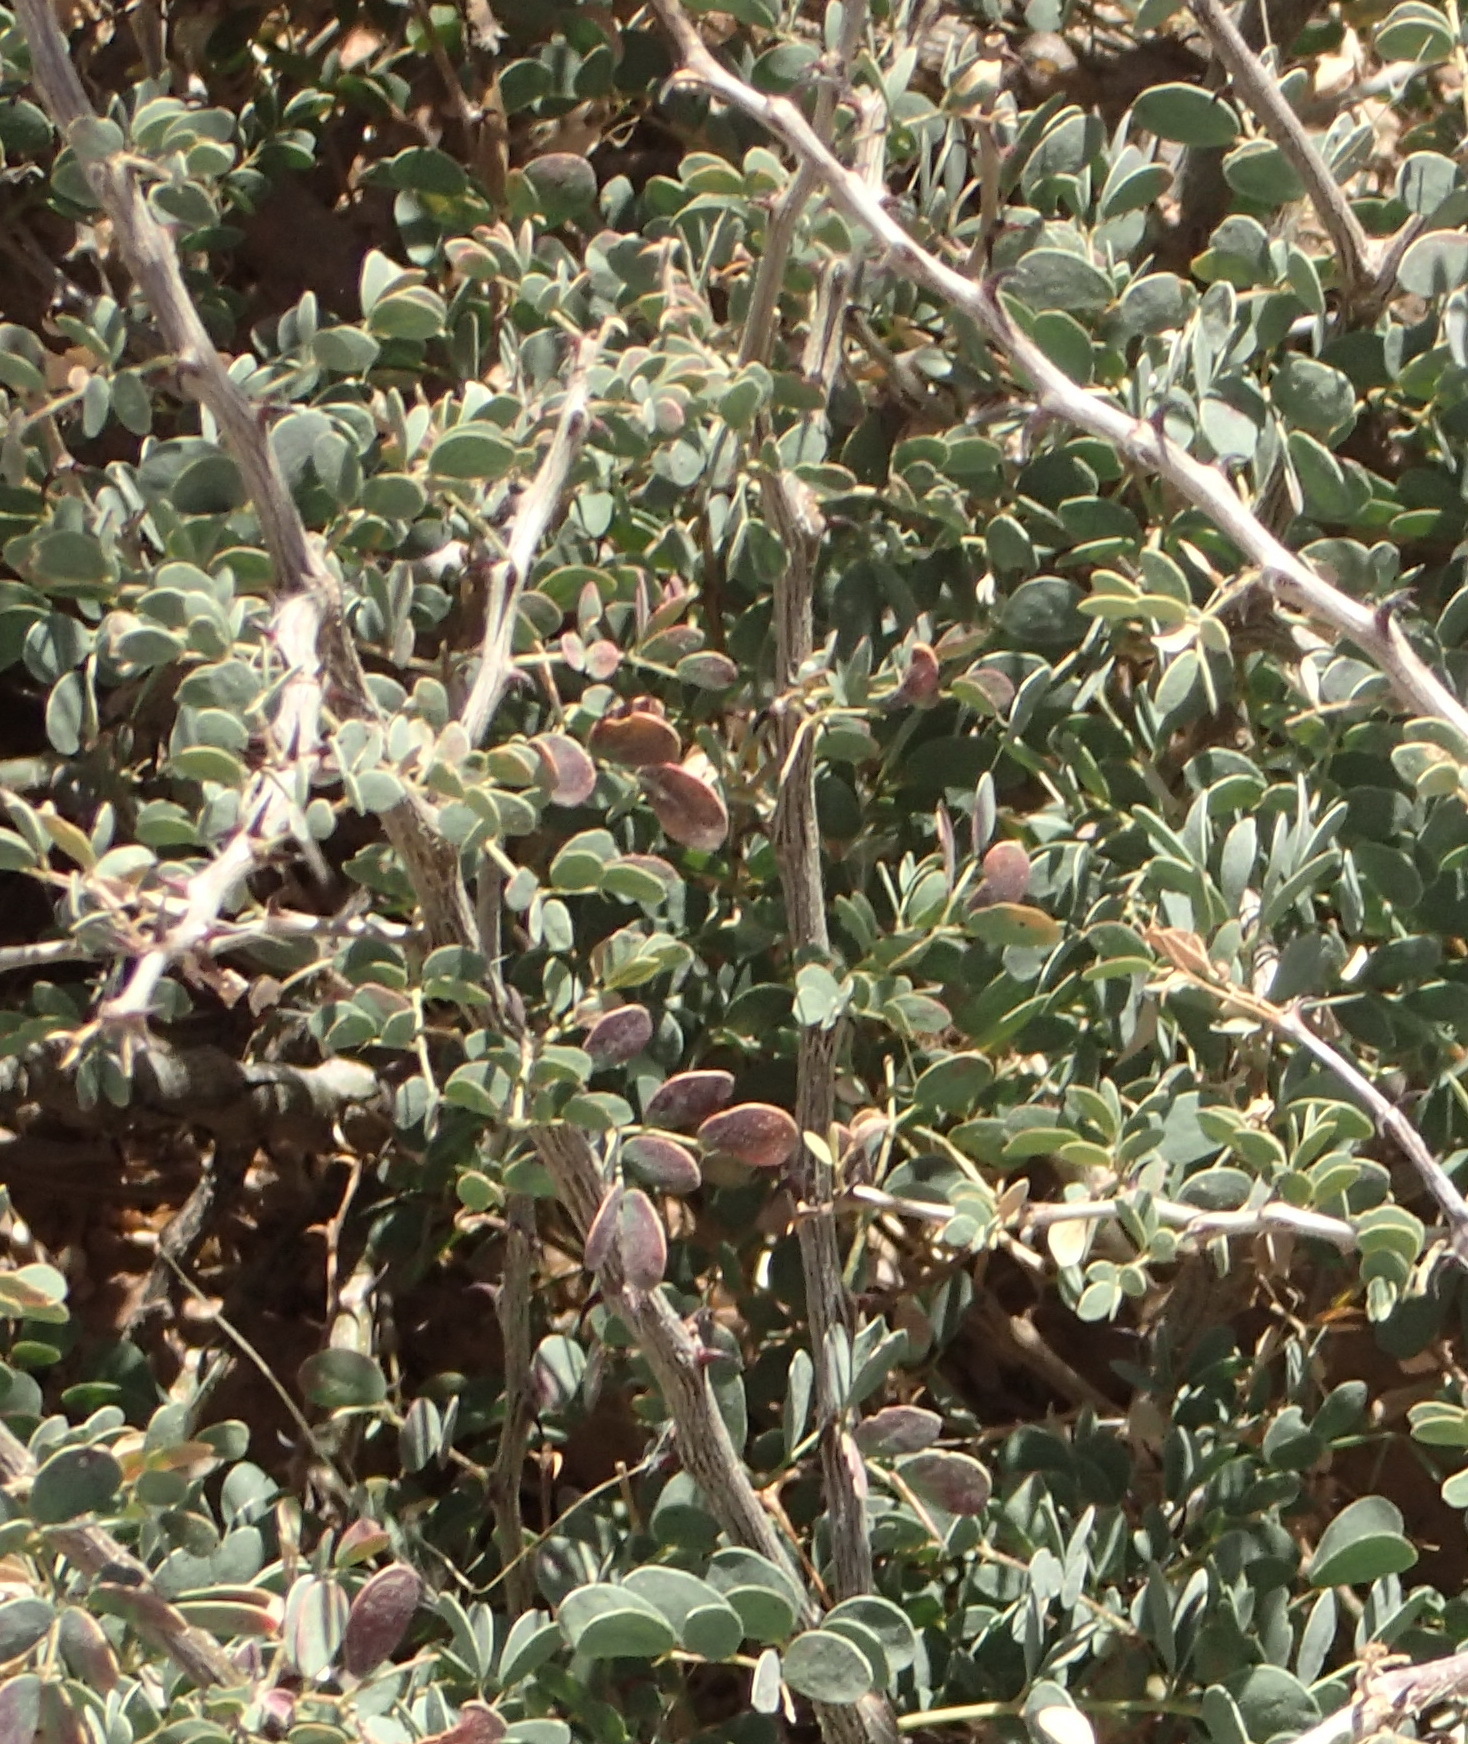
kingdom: Plantae
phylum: Tracheophyta
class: Magnoliopsida
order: Fabales
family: Fabaceae
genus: Senegalia
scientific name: Senegalia mellifera
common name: Hookthorn
